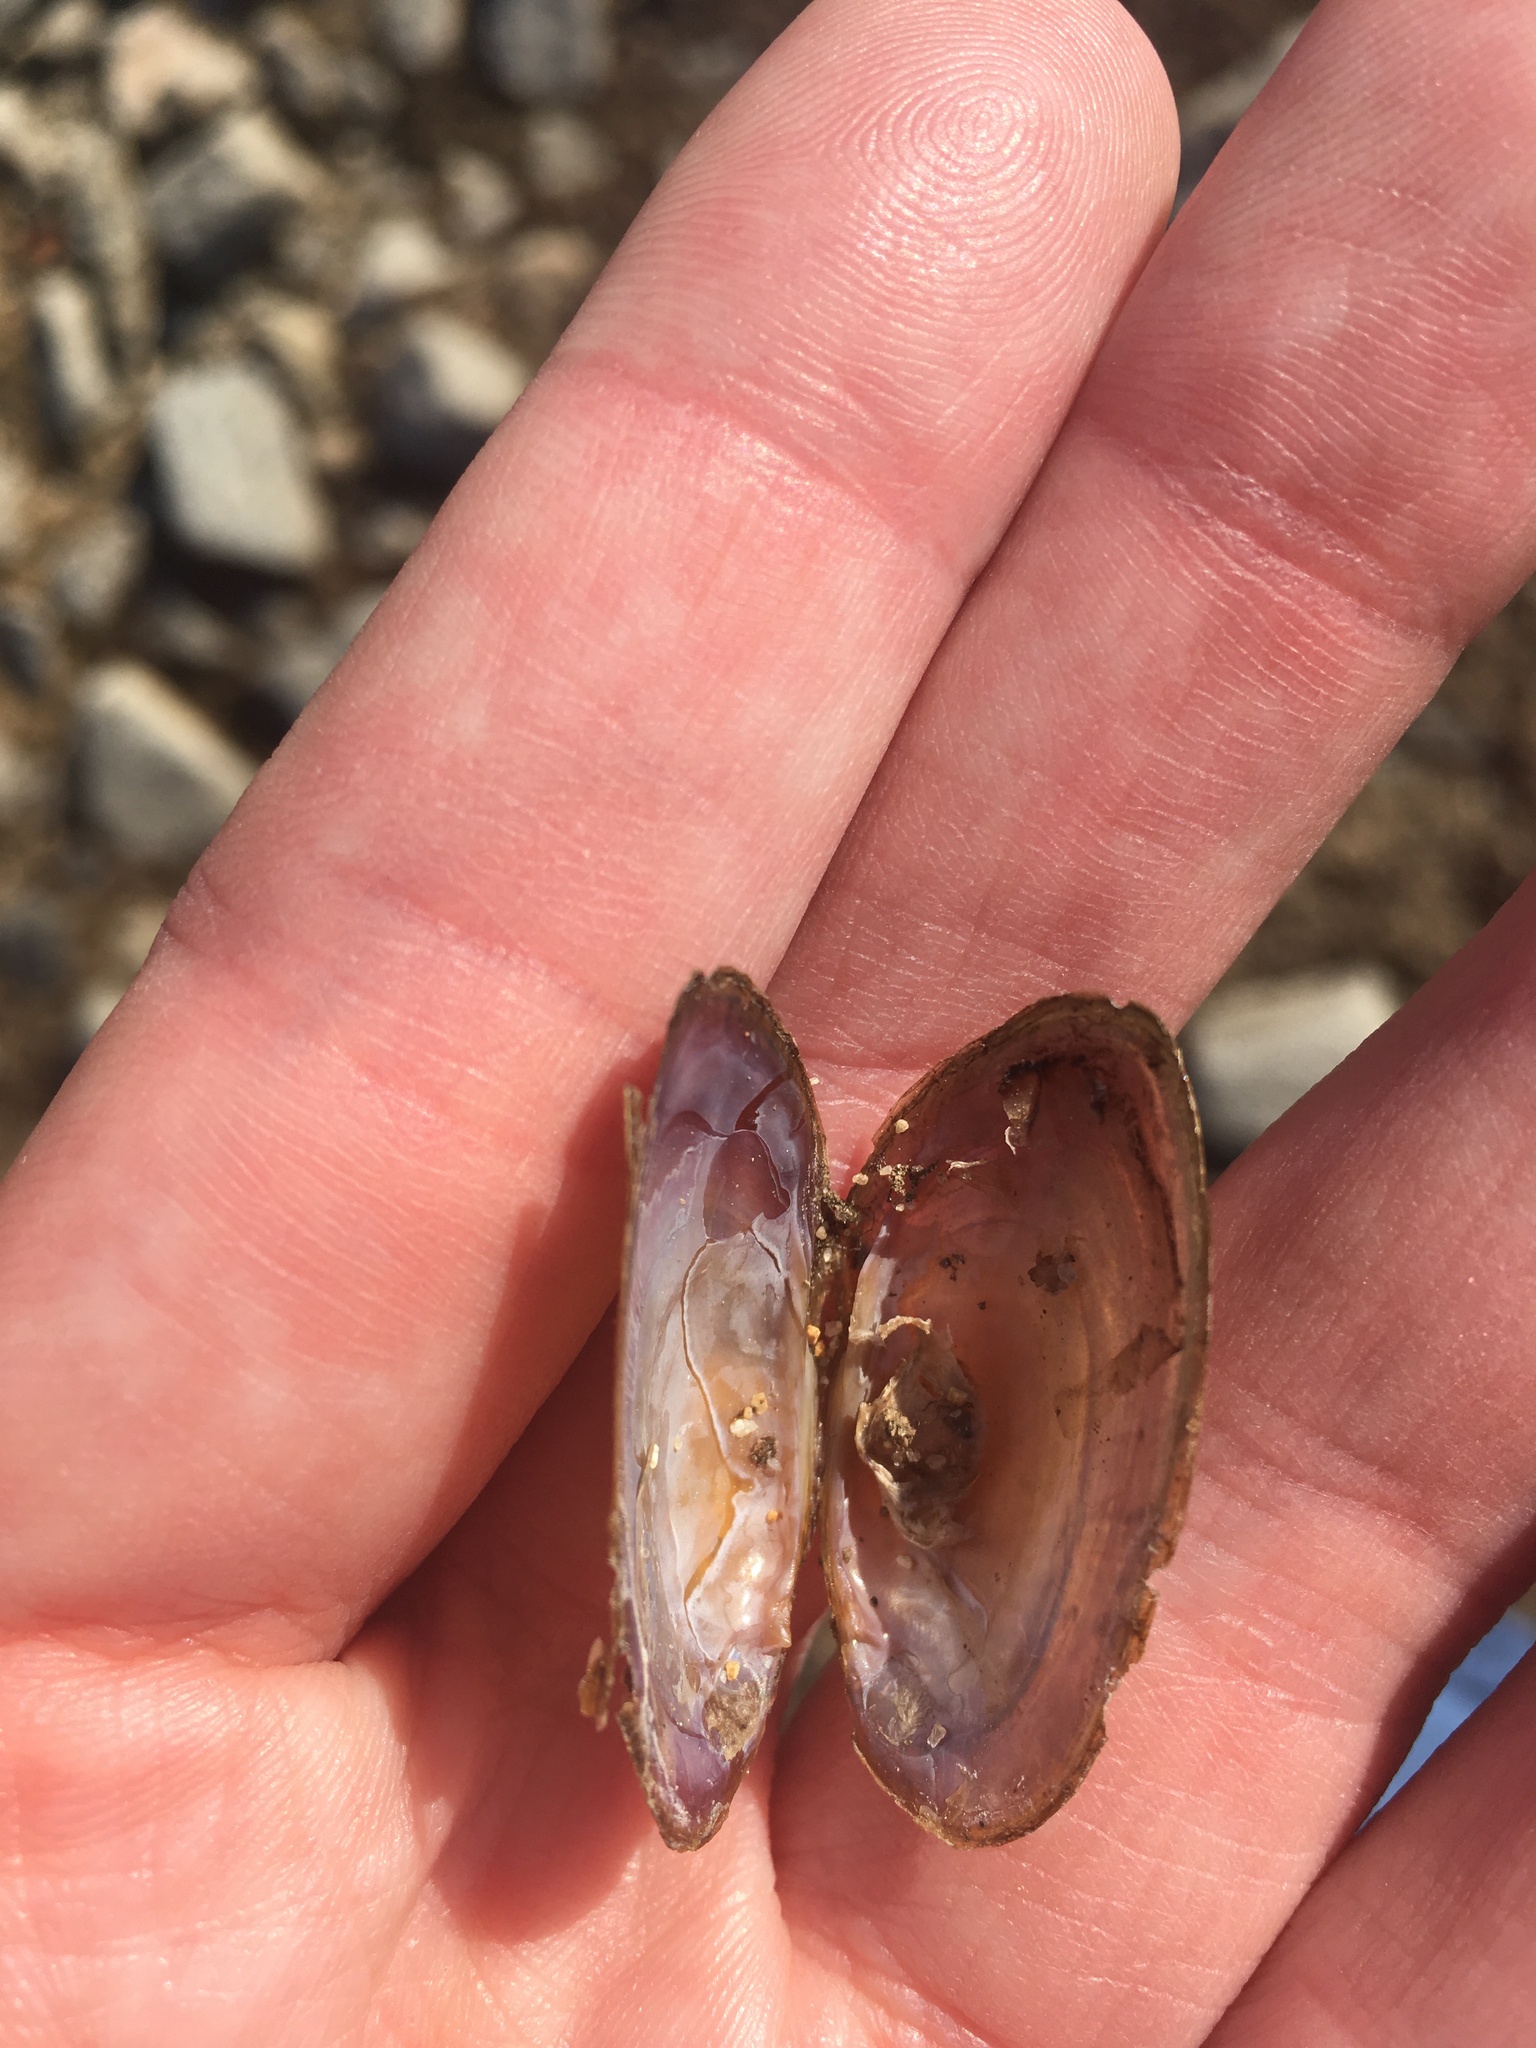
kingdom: Animalia
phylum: Mollusca
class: Bivalvia
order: Unionida
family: Unionidae
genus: Elliptio
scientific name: Elliptio complanata
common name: Eastern elliptio
